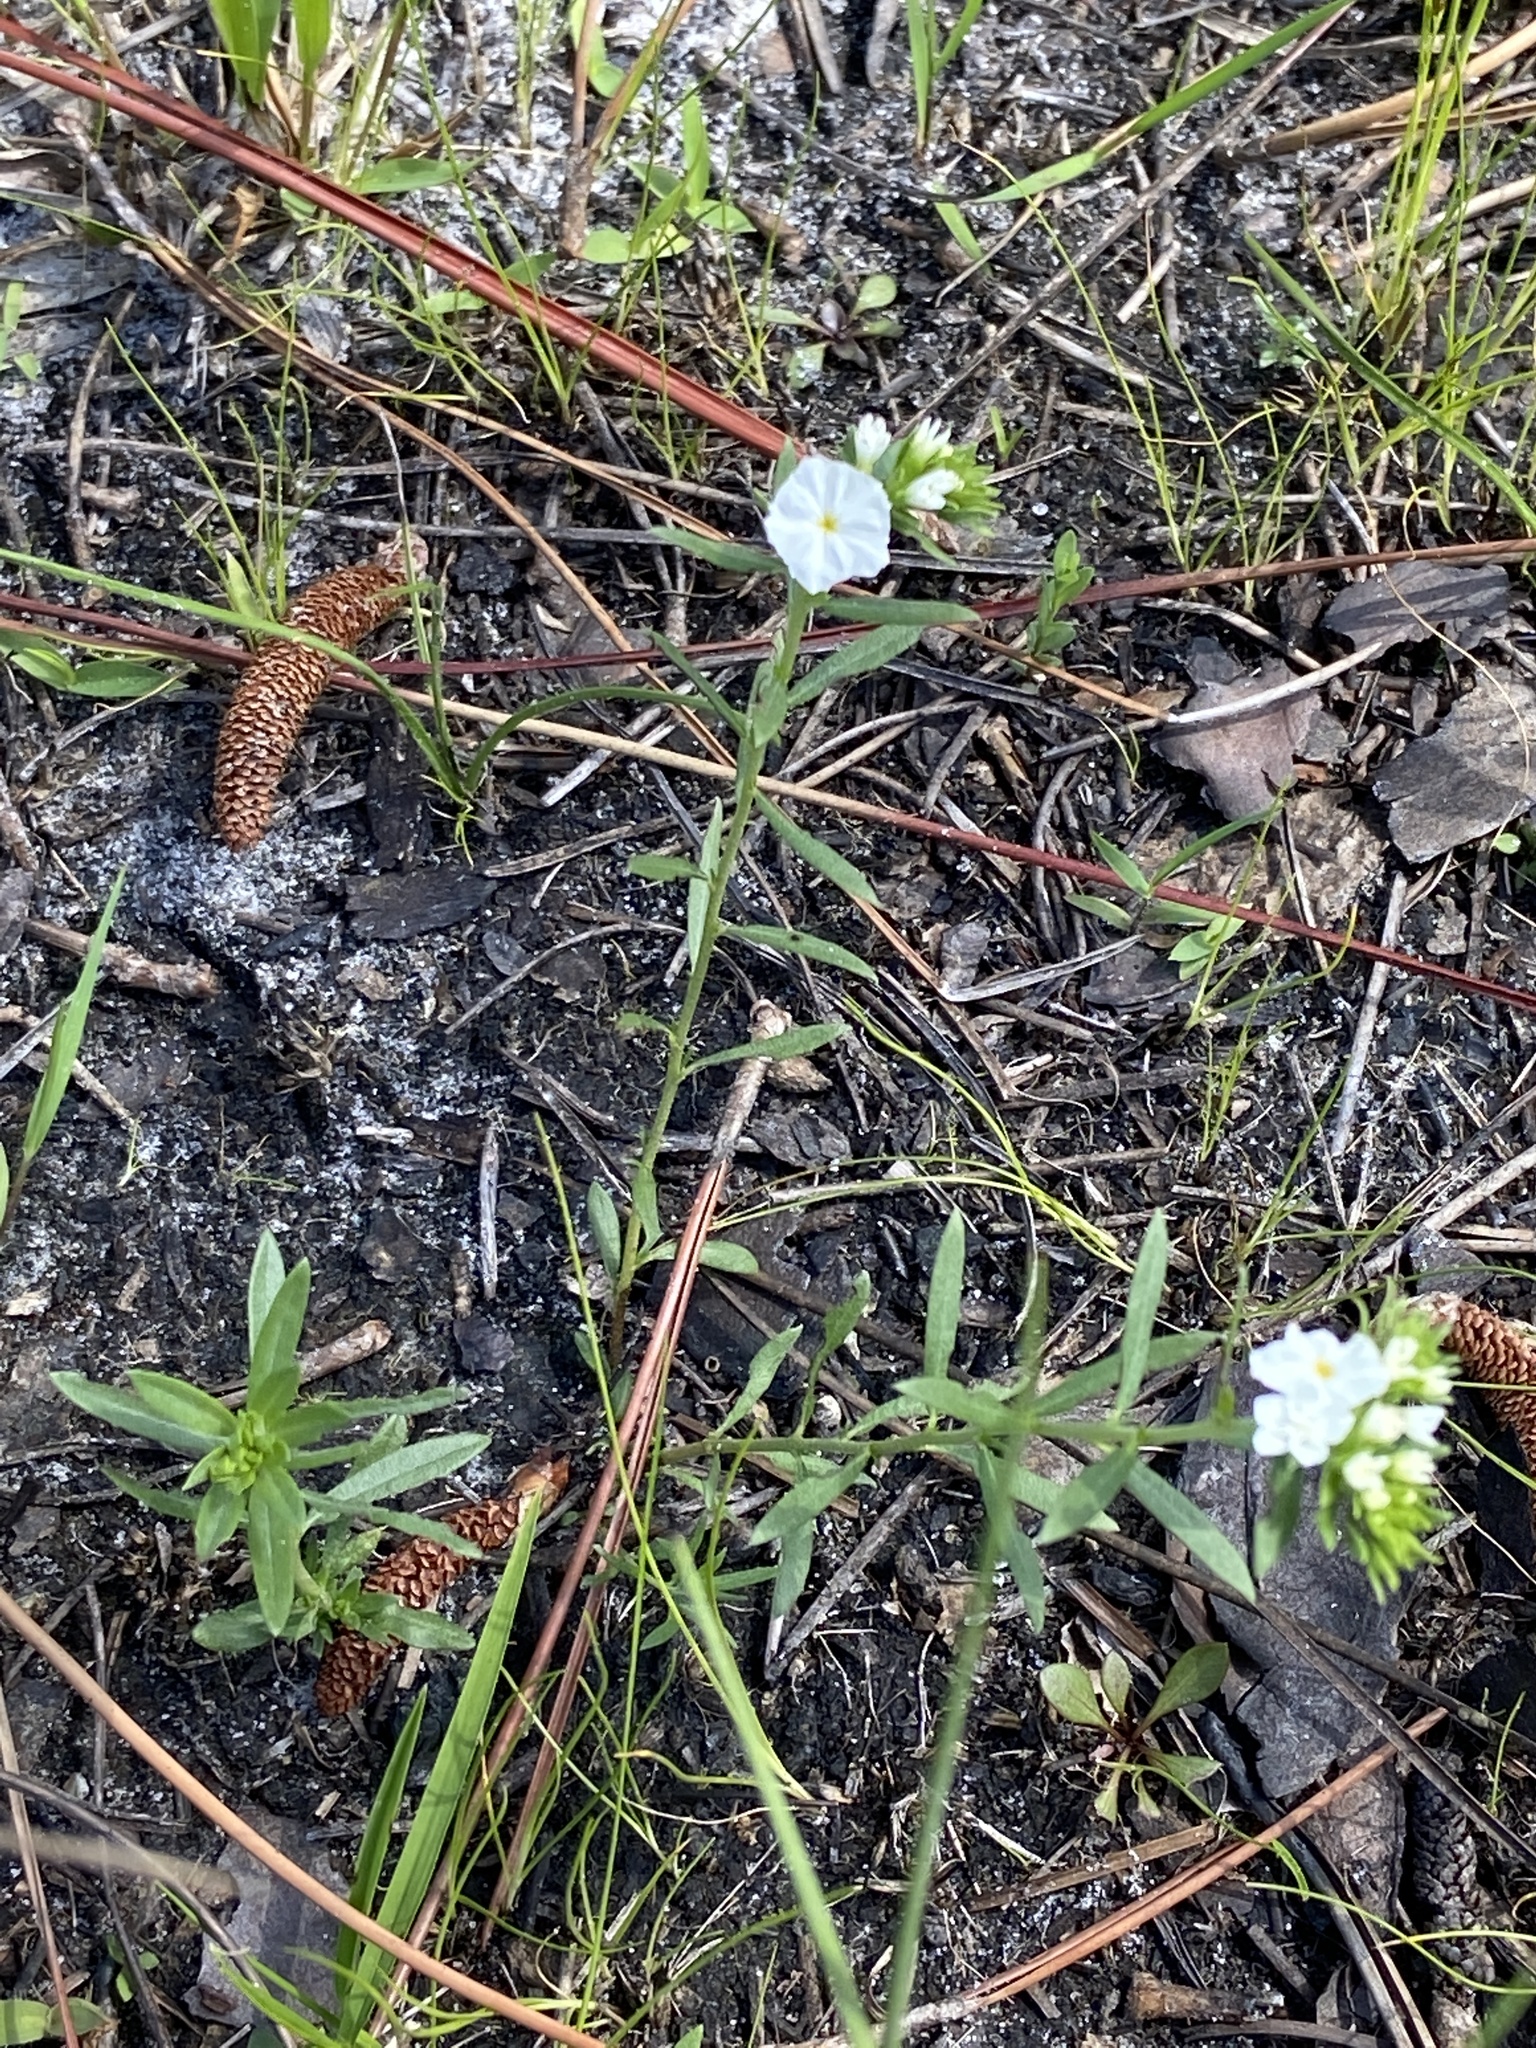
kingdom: Plantae
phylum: Tracheophyta
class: Magnoliopsida
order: Boraginales
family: Heliotropiaceae
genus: Euploca
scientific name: Euploca polyphylla
